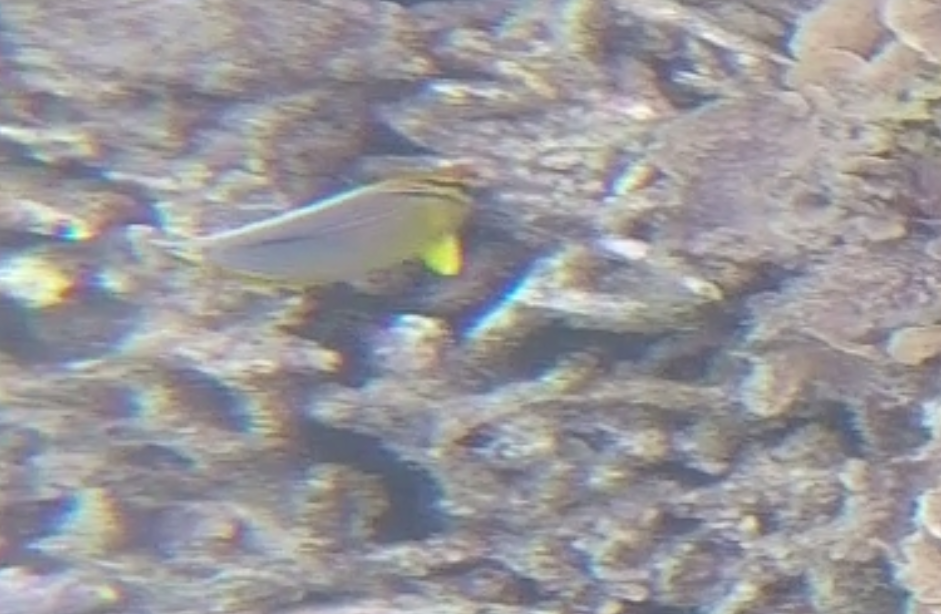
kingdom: Animalia
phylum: Chordata
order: Perciformes
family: Chaetodontidae
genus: Chaetodon
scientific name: Chaetodon trifasciatus
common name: Redfin butterflyfish
